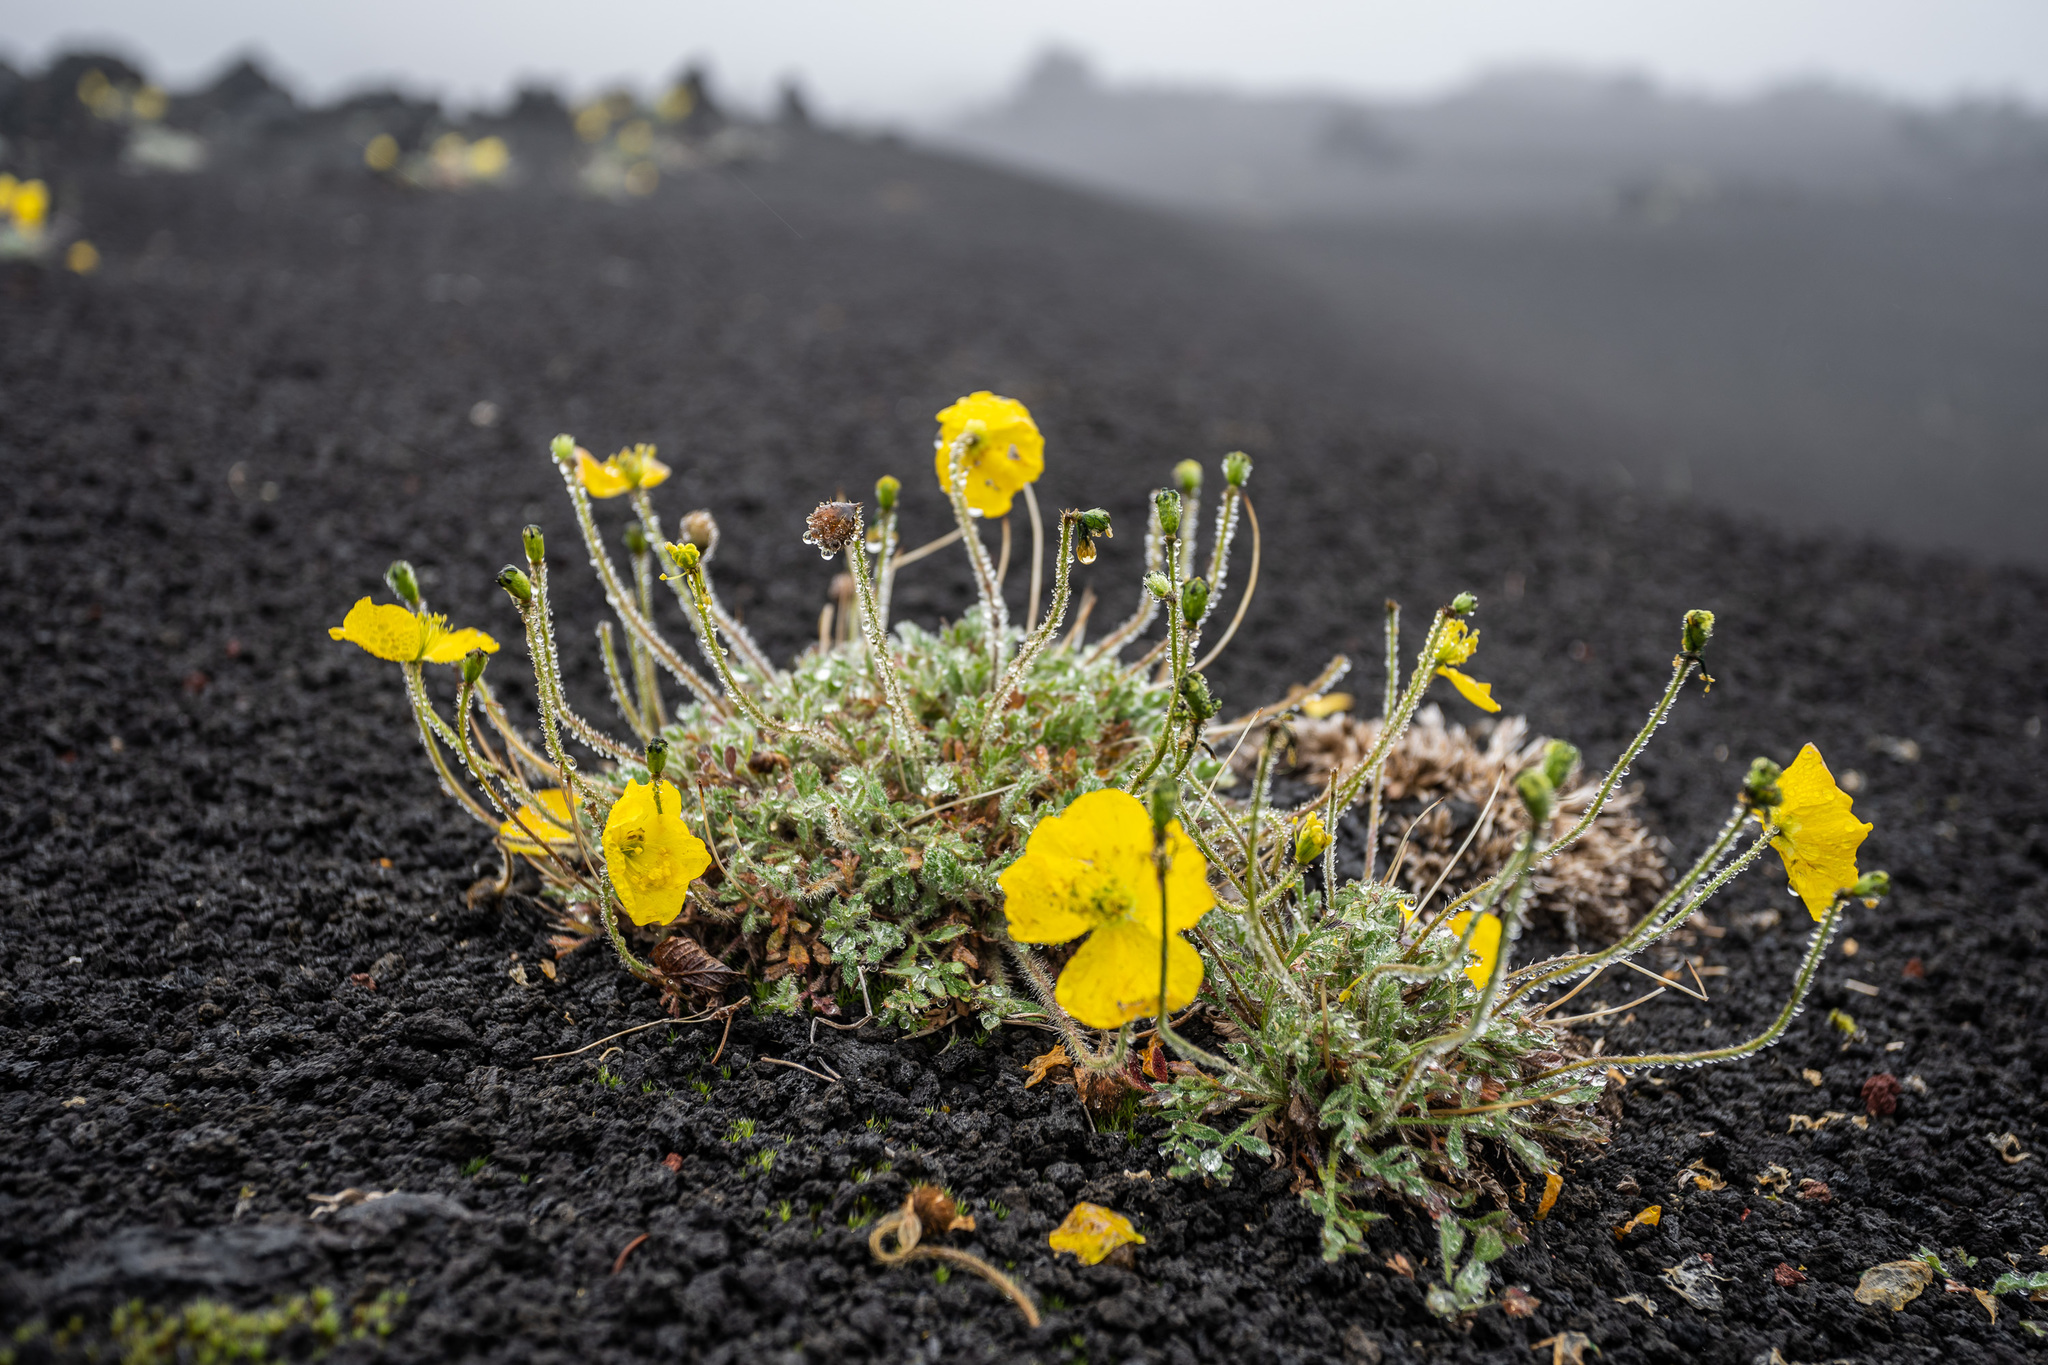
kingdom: Plantae
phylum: Tracheophyta
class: Magnoliopsida
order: Ranunculales
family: Papaveraceae
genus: Papaver
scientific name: Papaver microcarpum
